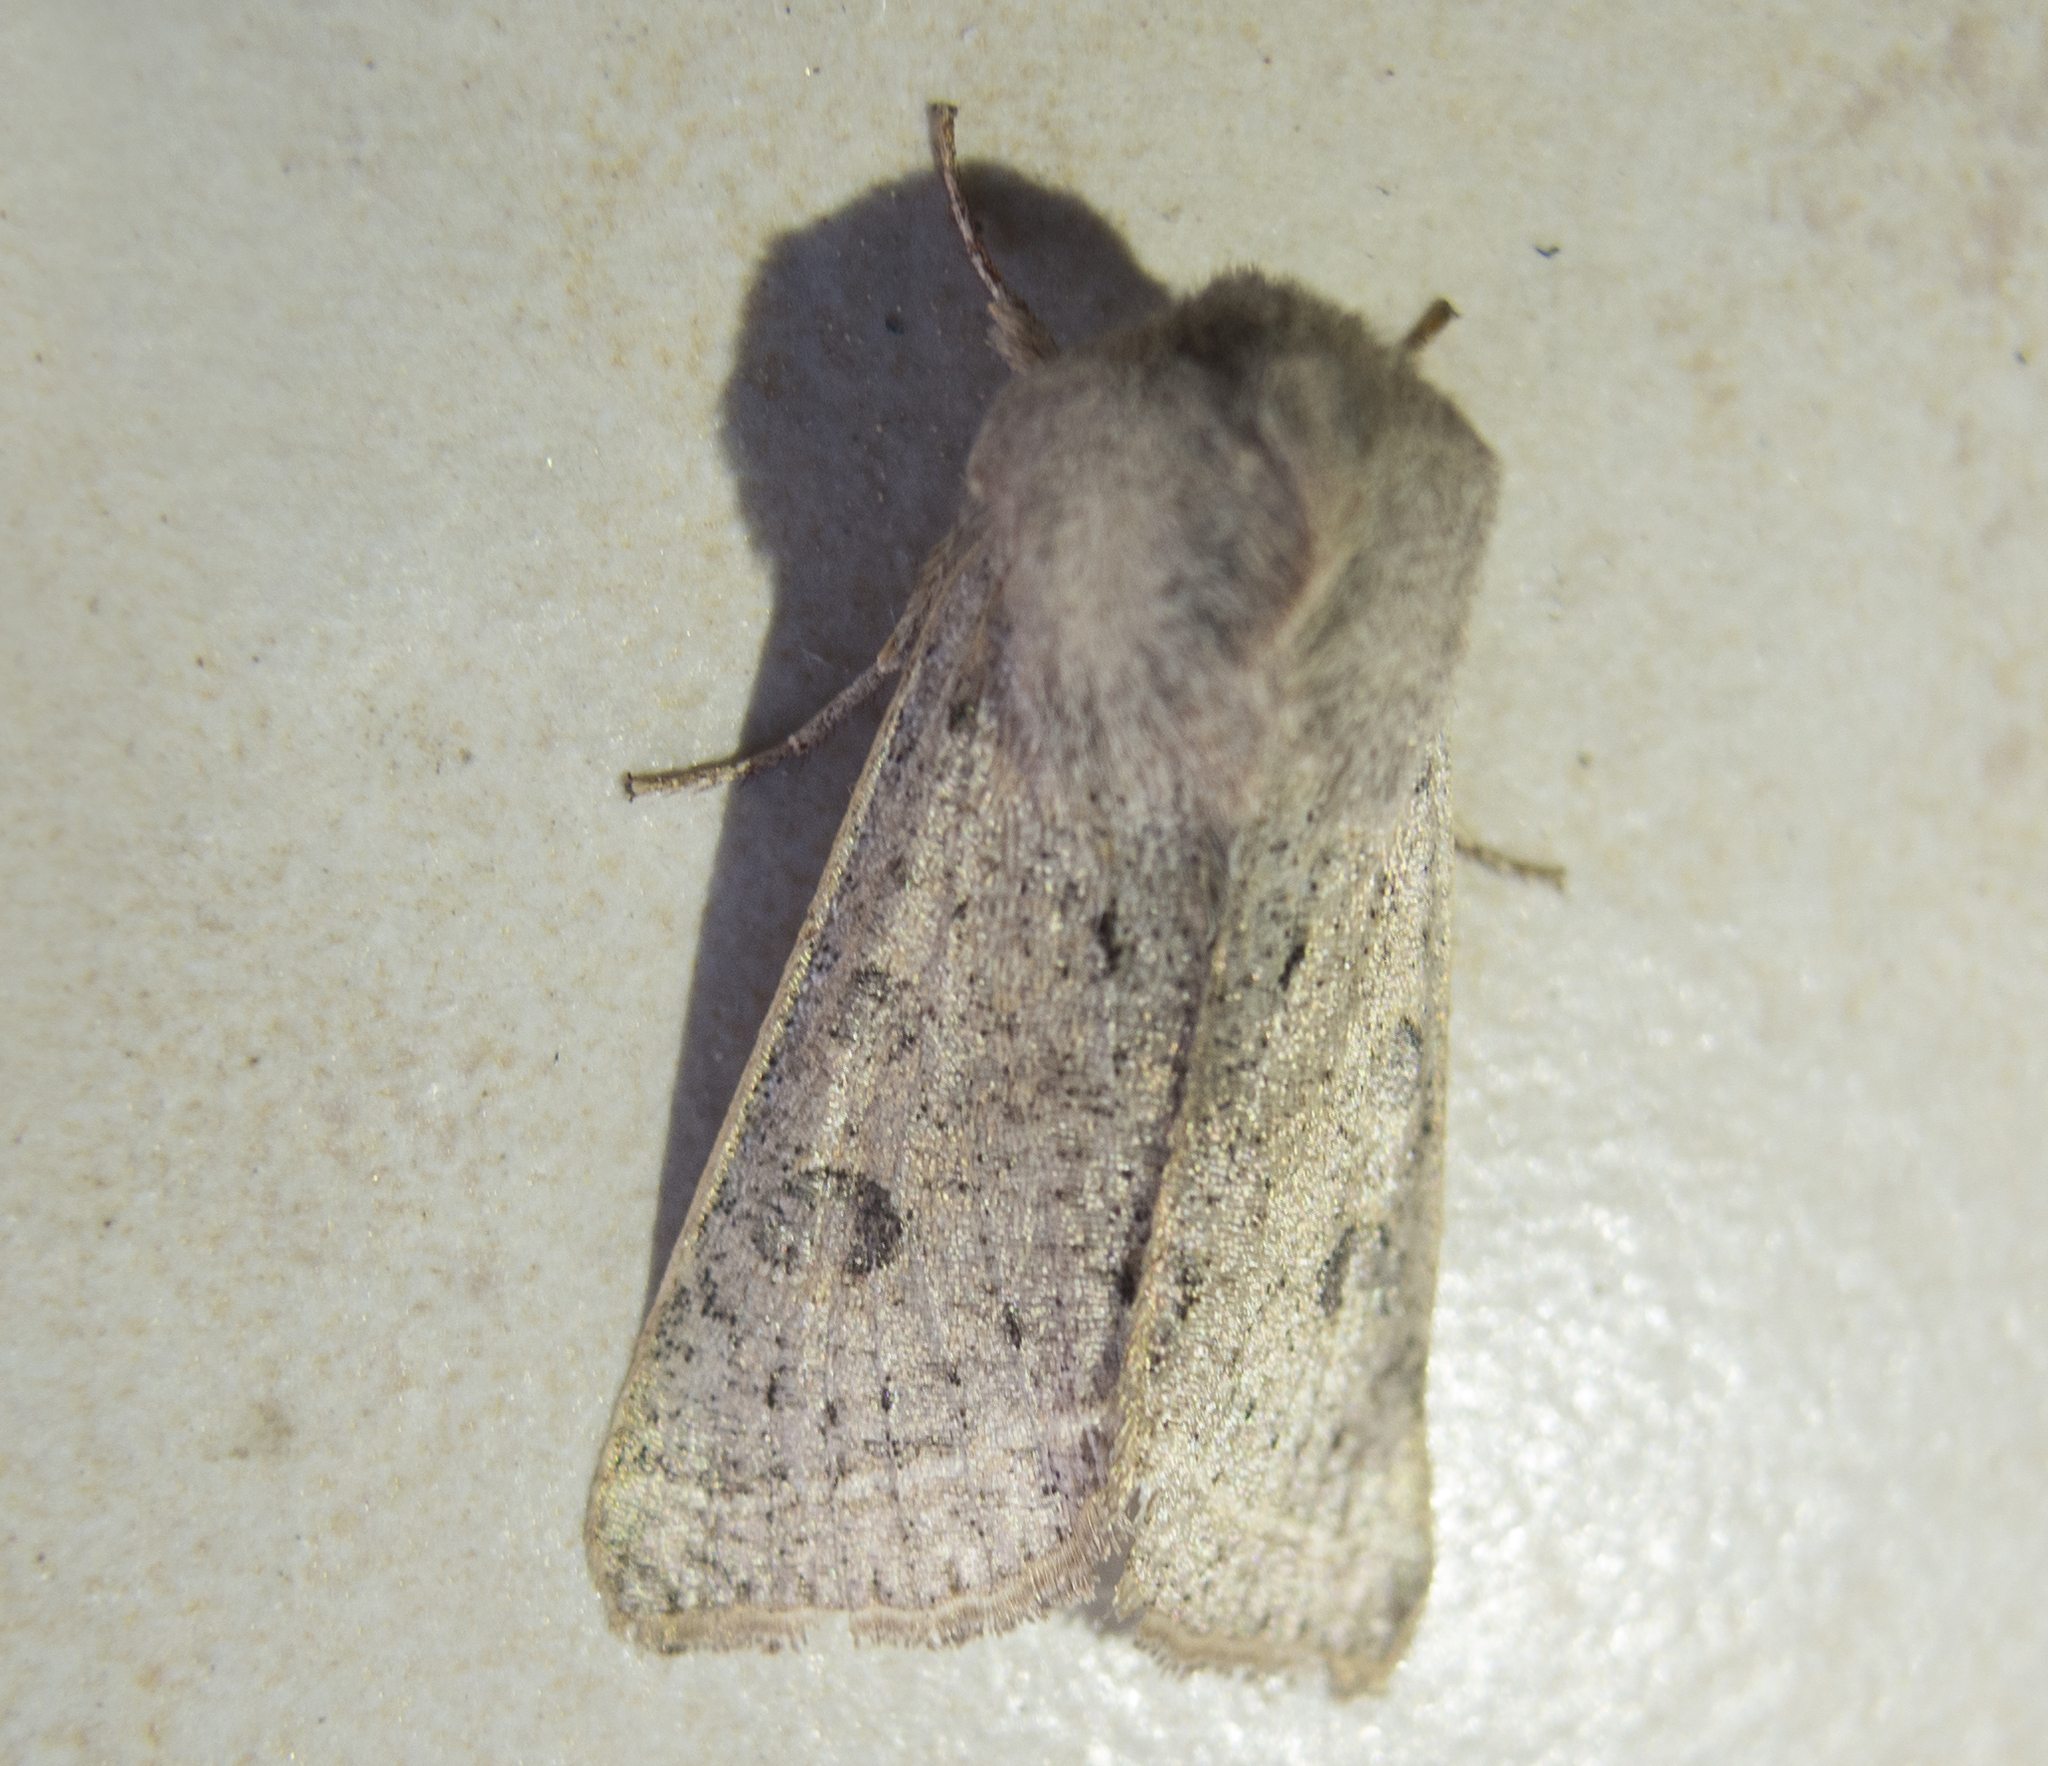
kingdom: Animalia
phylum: Arthropoda
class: Insecta
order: Lepidoptera
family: Noctuidae
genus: Orthosia
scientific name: Orthosia gracilis
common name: Powdered quaker
